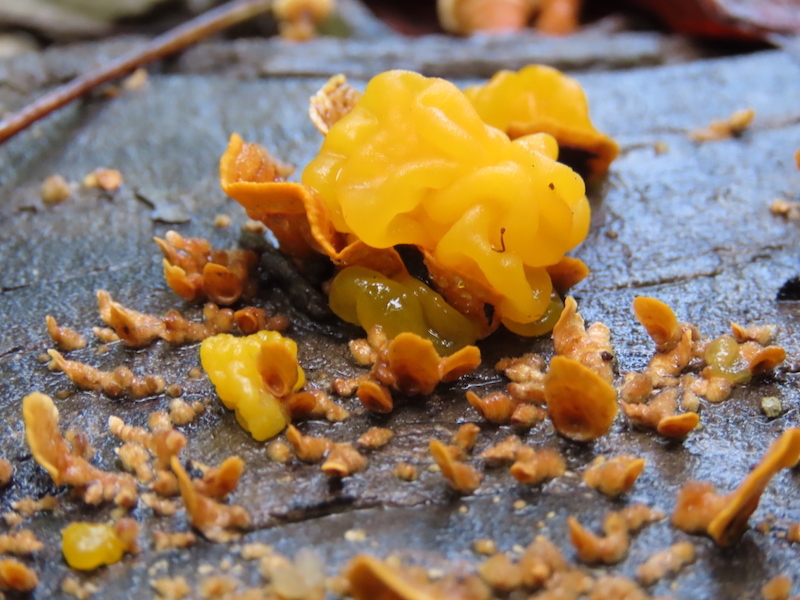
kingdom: Fungi
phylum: Basidiomycota
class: Tremellomycetes
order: Tremellales
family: Naemateliaceae
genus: Naematelia
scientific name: Naematelia aurantia
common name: Golden ear
